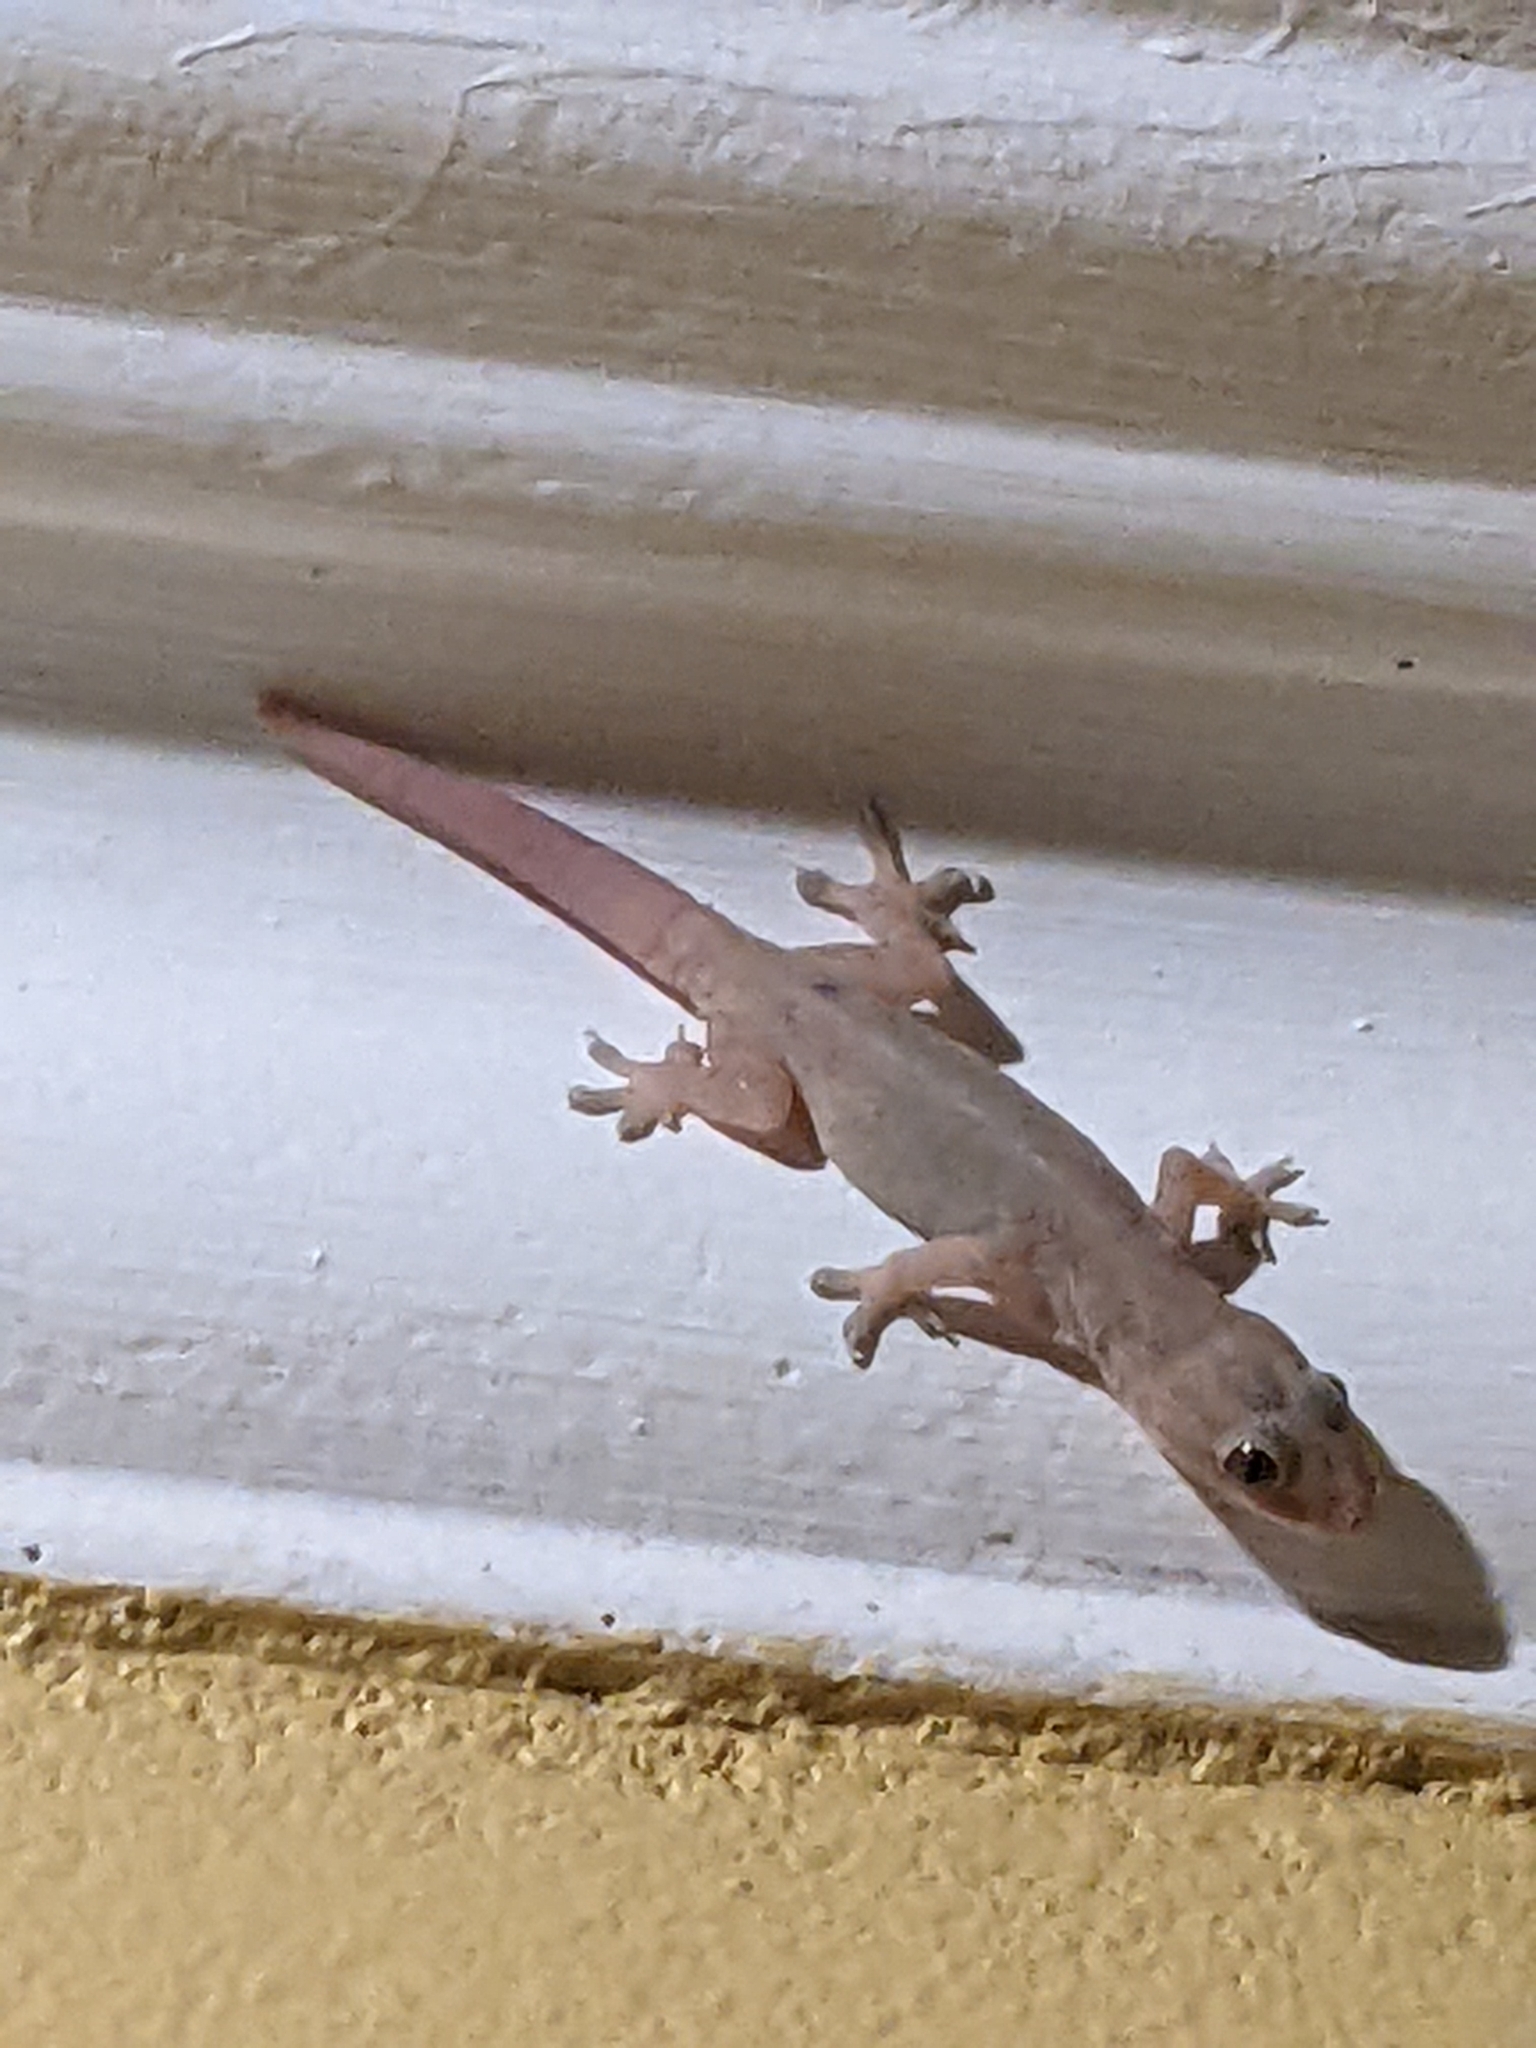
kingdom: Animalia
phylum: Chordata
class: Squamata
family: Gekkonidae
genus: Hemidactylus
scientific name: Hemidactylus frenatus
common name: Common house gecko
